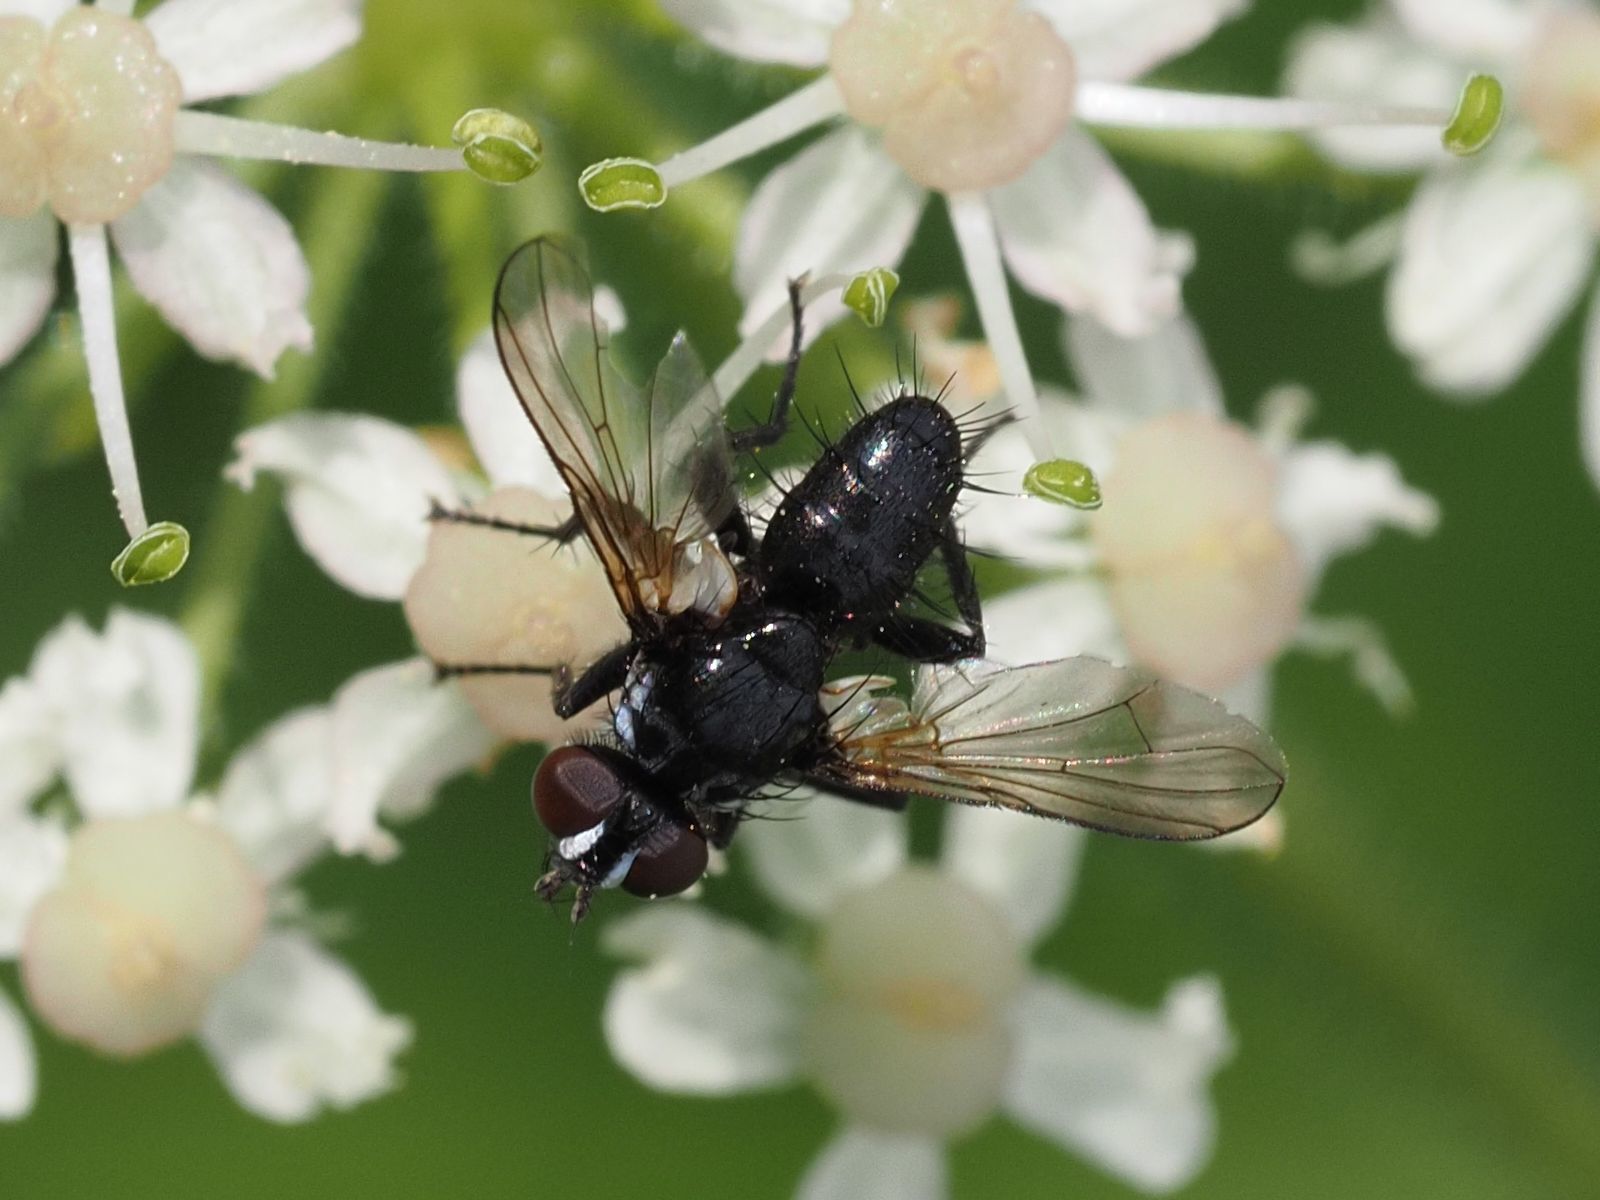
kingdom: Animalia
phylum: Arthropoda
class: Insecta
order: Diptera
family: Tachinidae
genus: Phania
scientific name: Phania funesta
